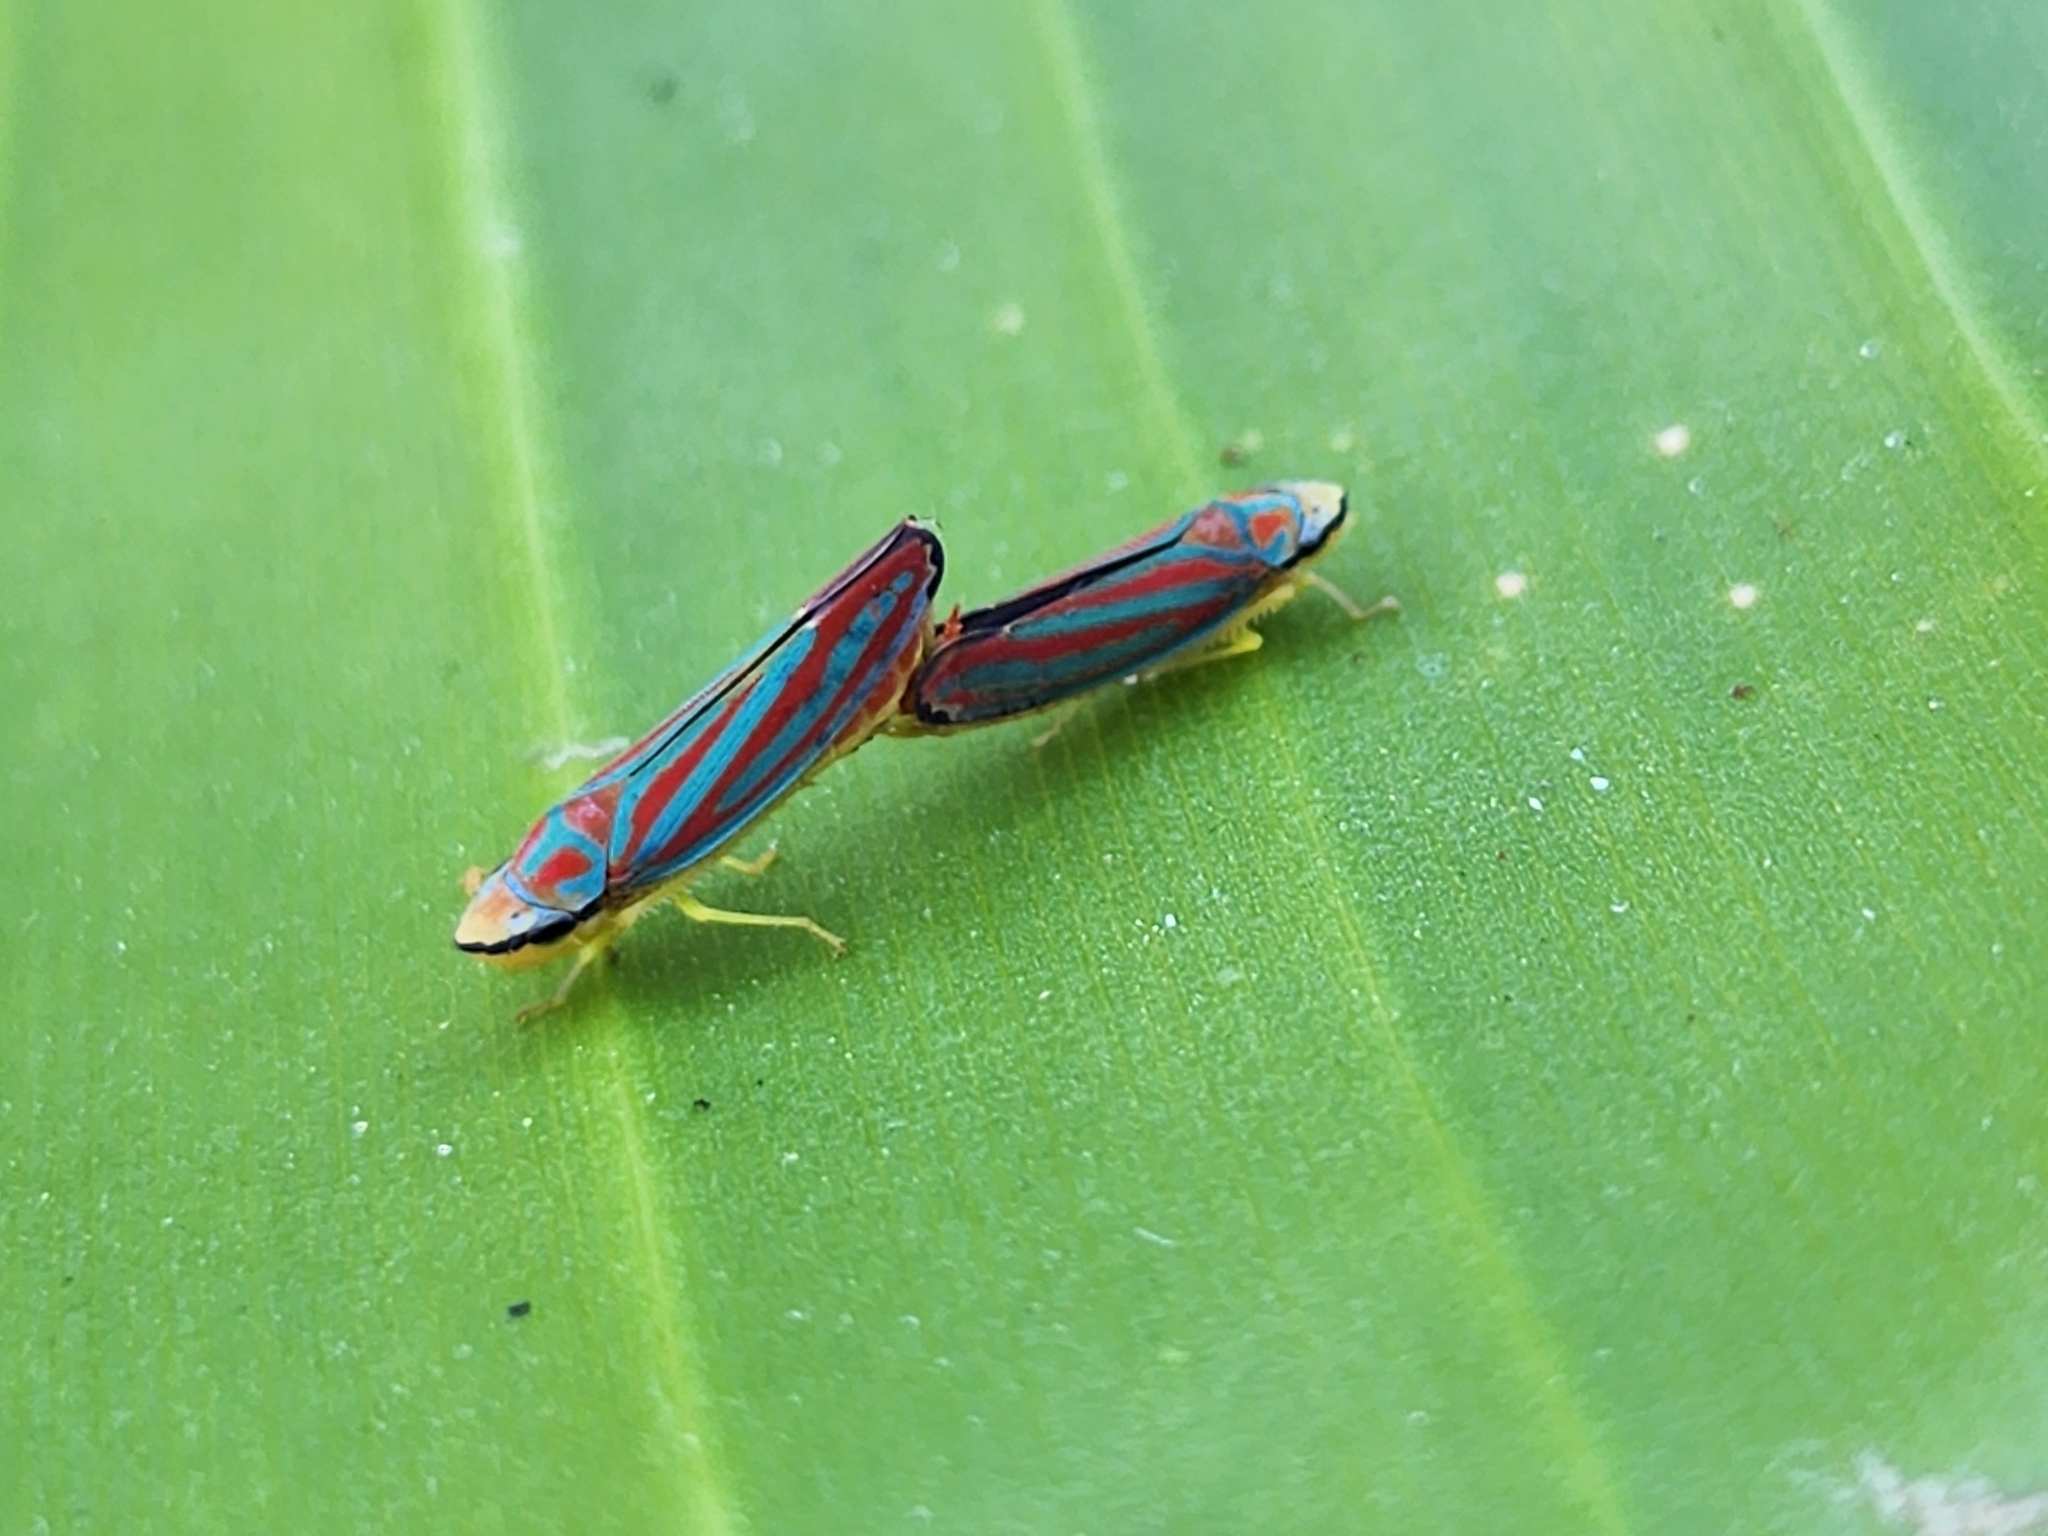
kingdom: Animalia
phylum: Arthropoda
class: Insecta
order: Hemiptera
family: Cicadellidae
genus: Graphocephala
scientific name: Graphocephala coccinea
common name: Candy-striped leafhopper
